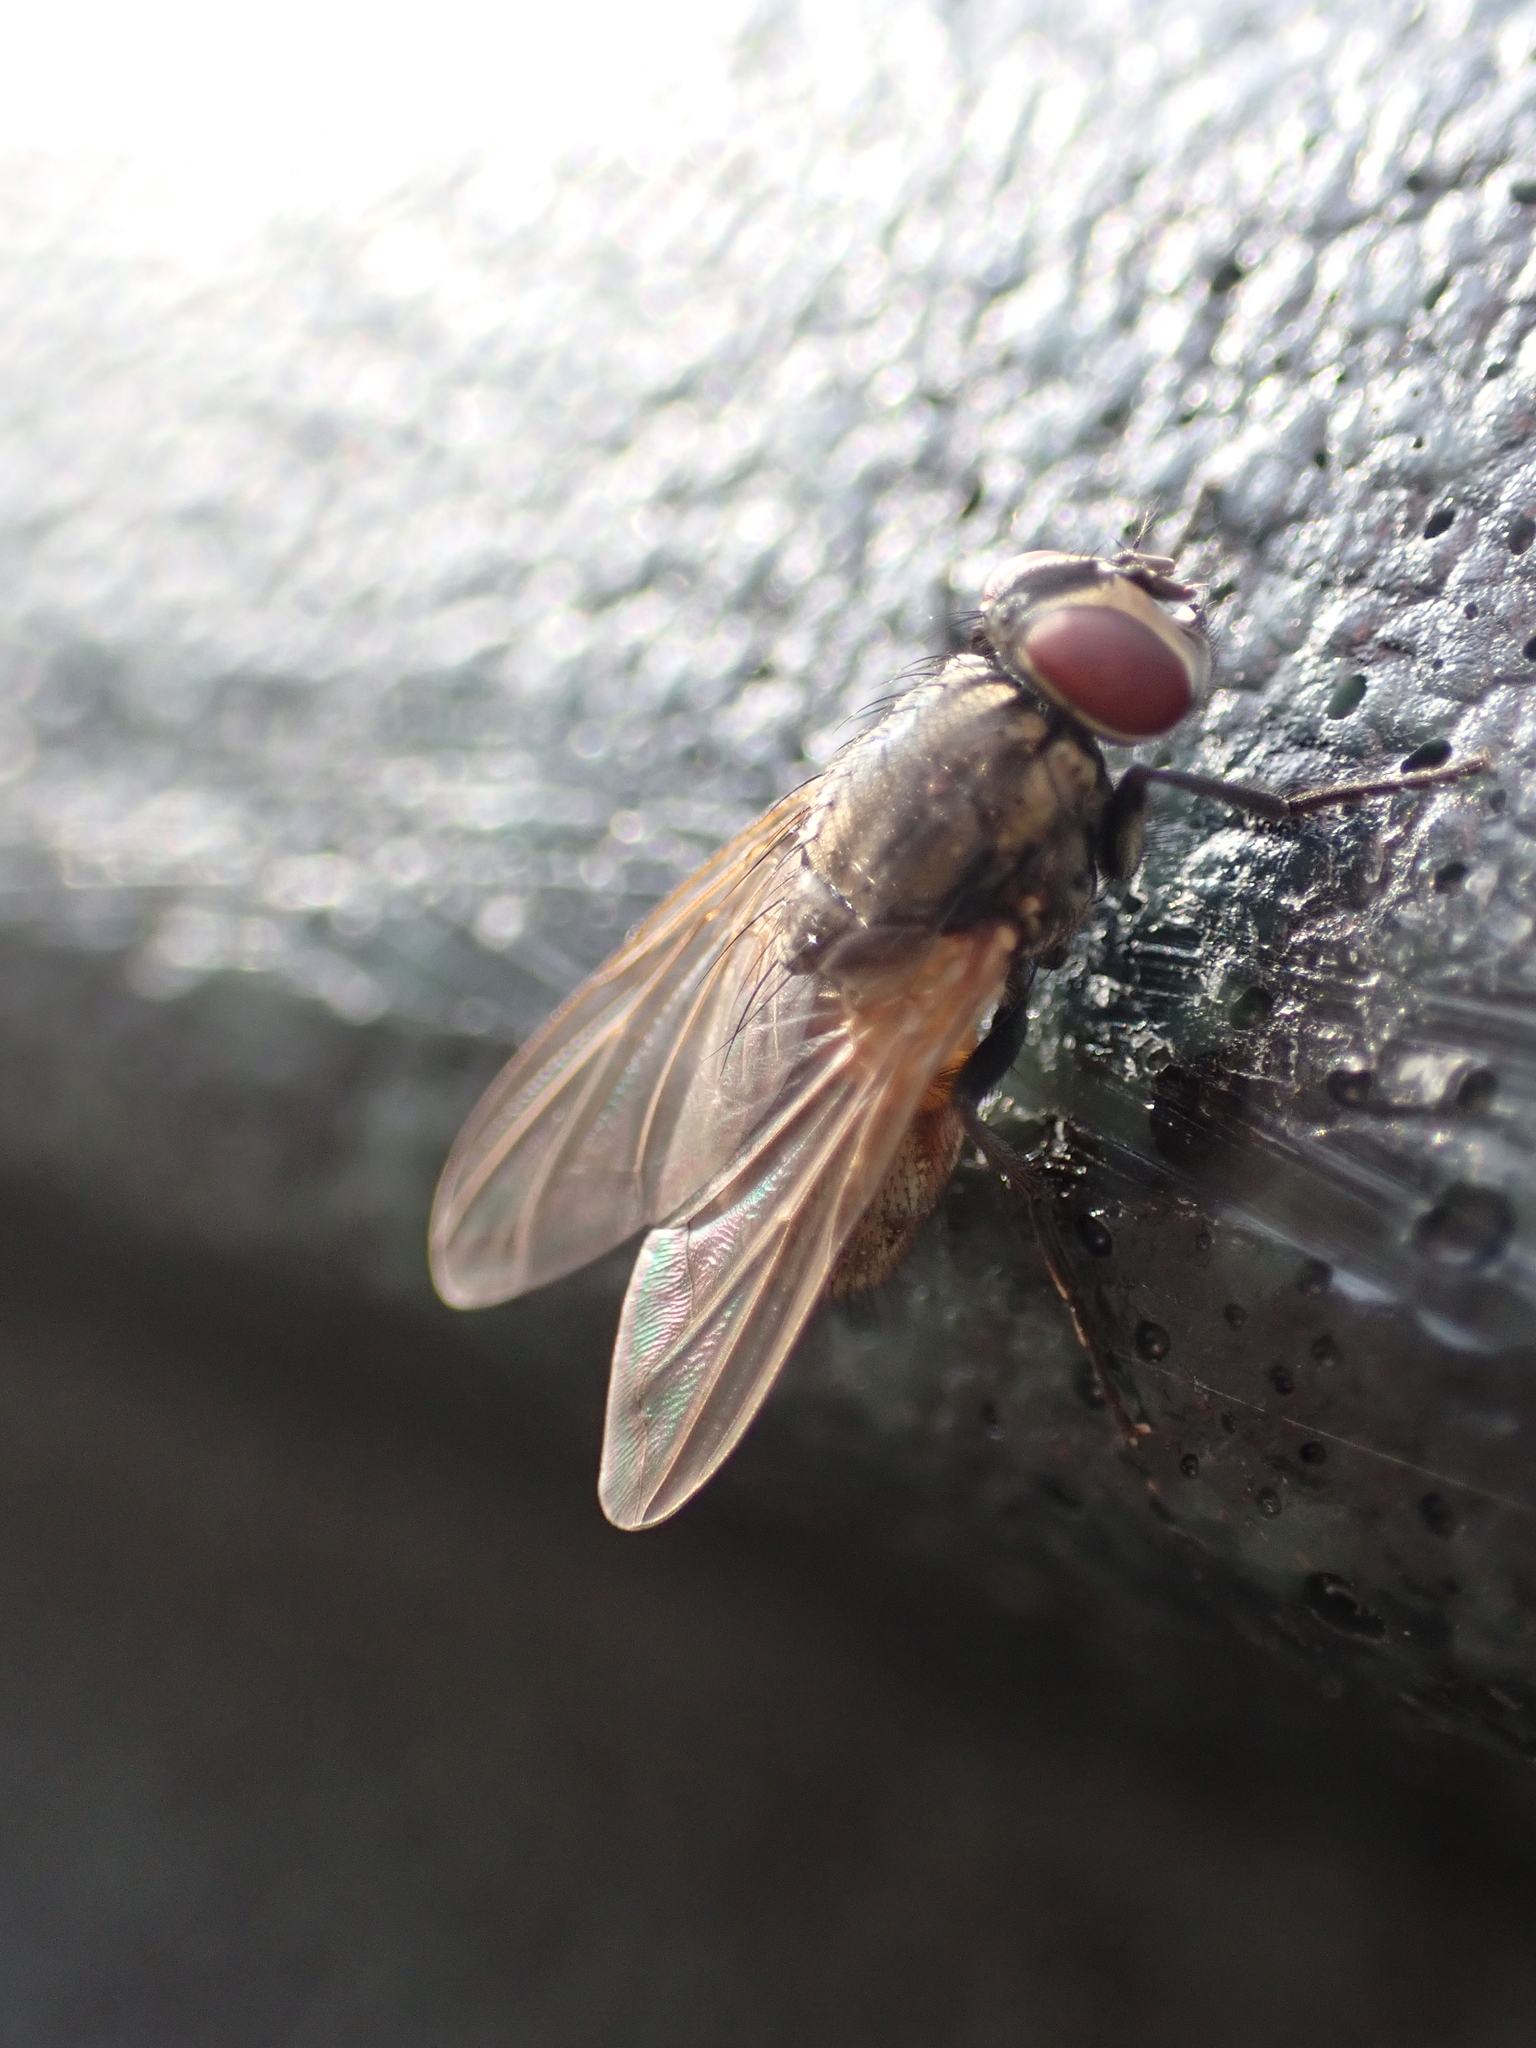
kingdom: Animalia
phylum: Arthropoda
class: Insecta
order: Diptera
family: Muscidae
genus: Musca
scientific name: Musca domestica
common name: House fly
